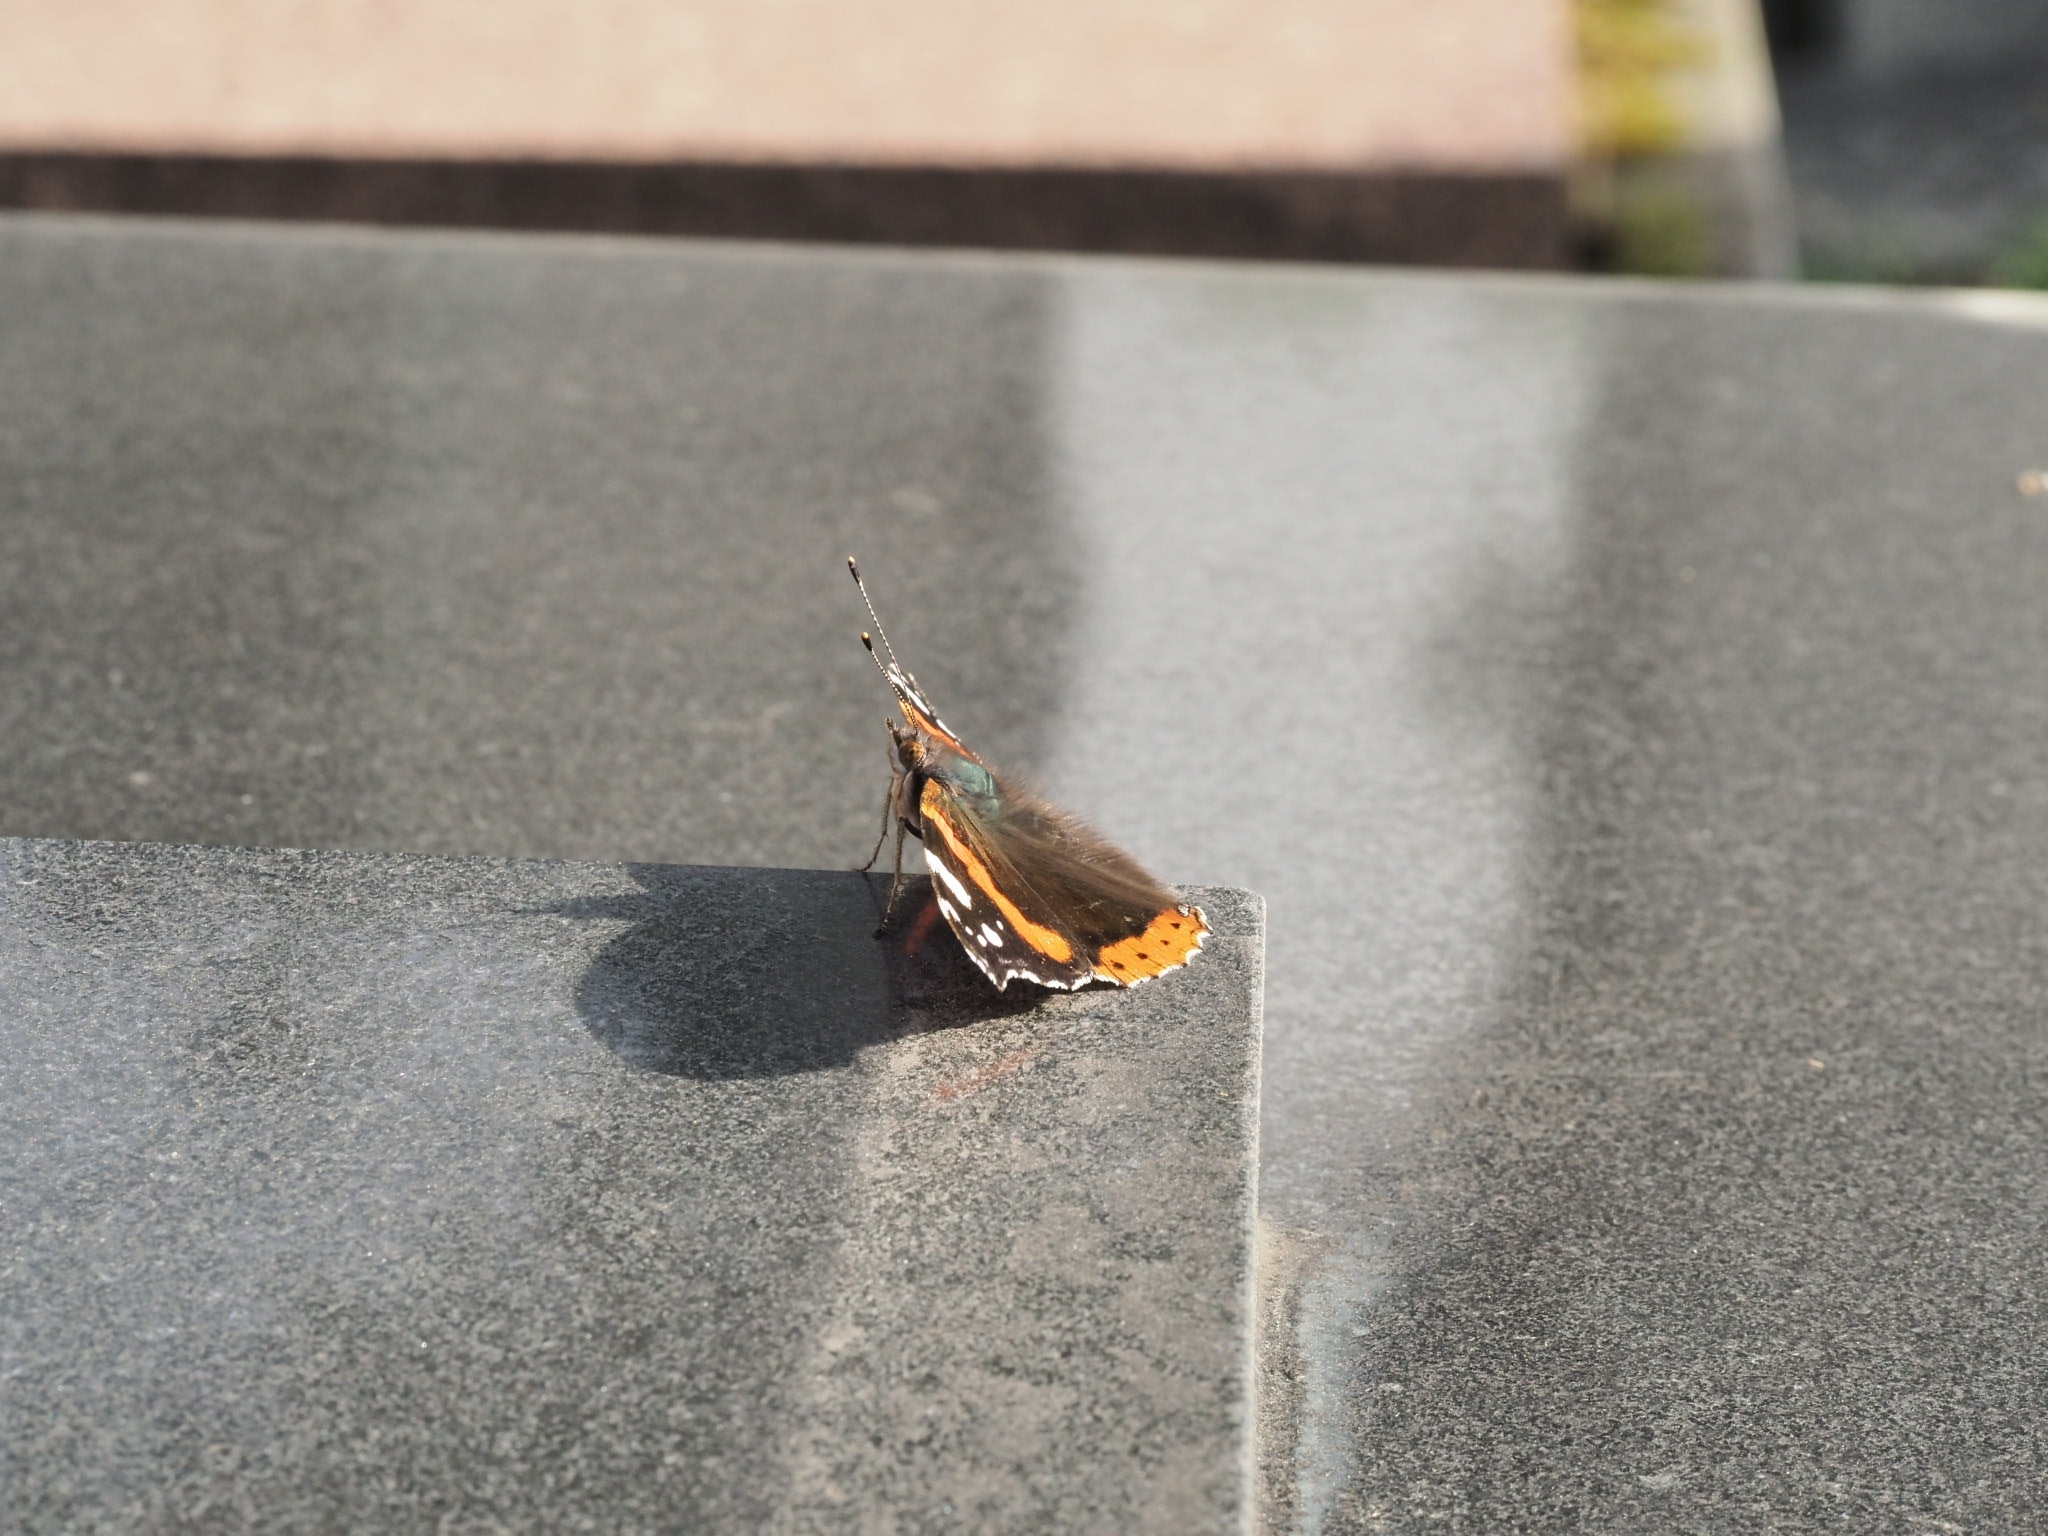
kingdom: Animalia
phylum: Arthropoda
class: Insecta
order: Lepidoptera
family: Nymphalidae
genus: Vanessa
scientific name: Vanessa atalanta
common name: Red admiral
